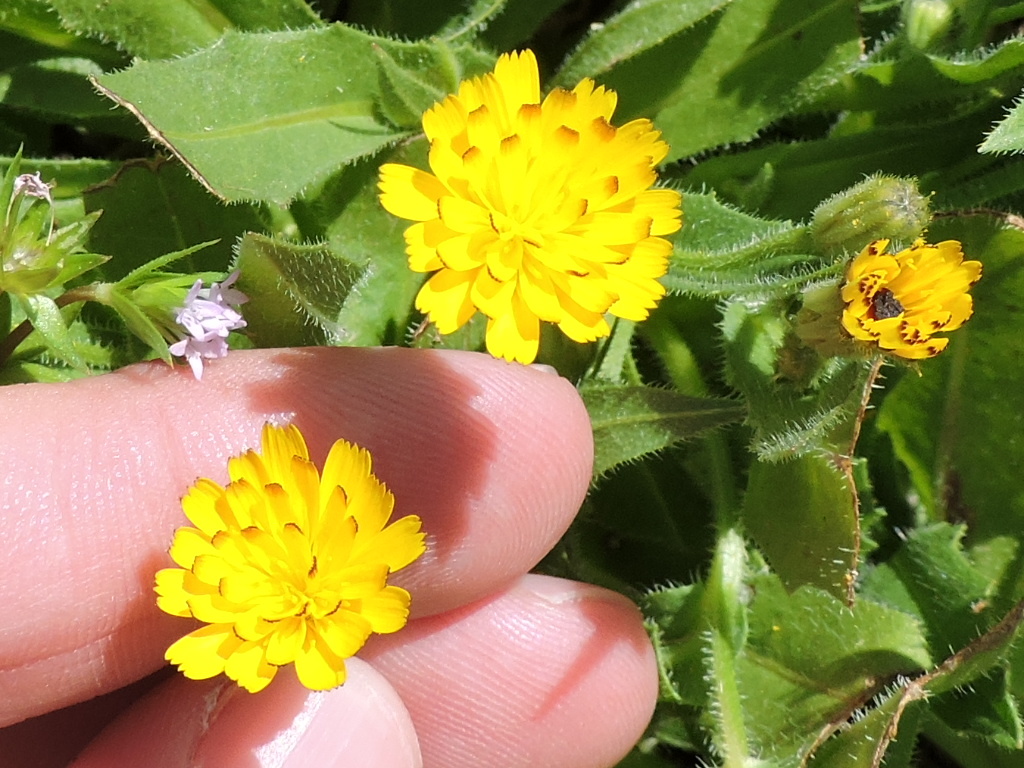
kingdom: Plantae
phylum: Tracheophyta
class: Magnoliopsida
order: Asterales
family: Asteraceae
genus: Hedypnois
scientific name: Hedypnois rhagadioloides
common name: Cretan weed
